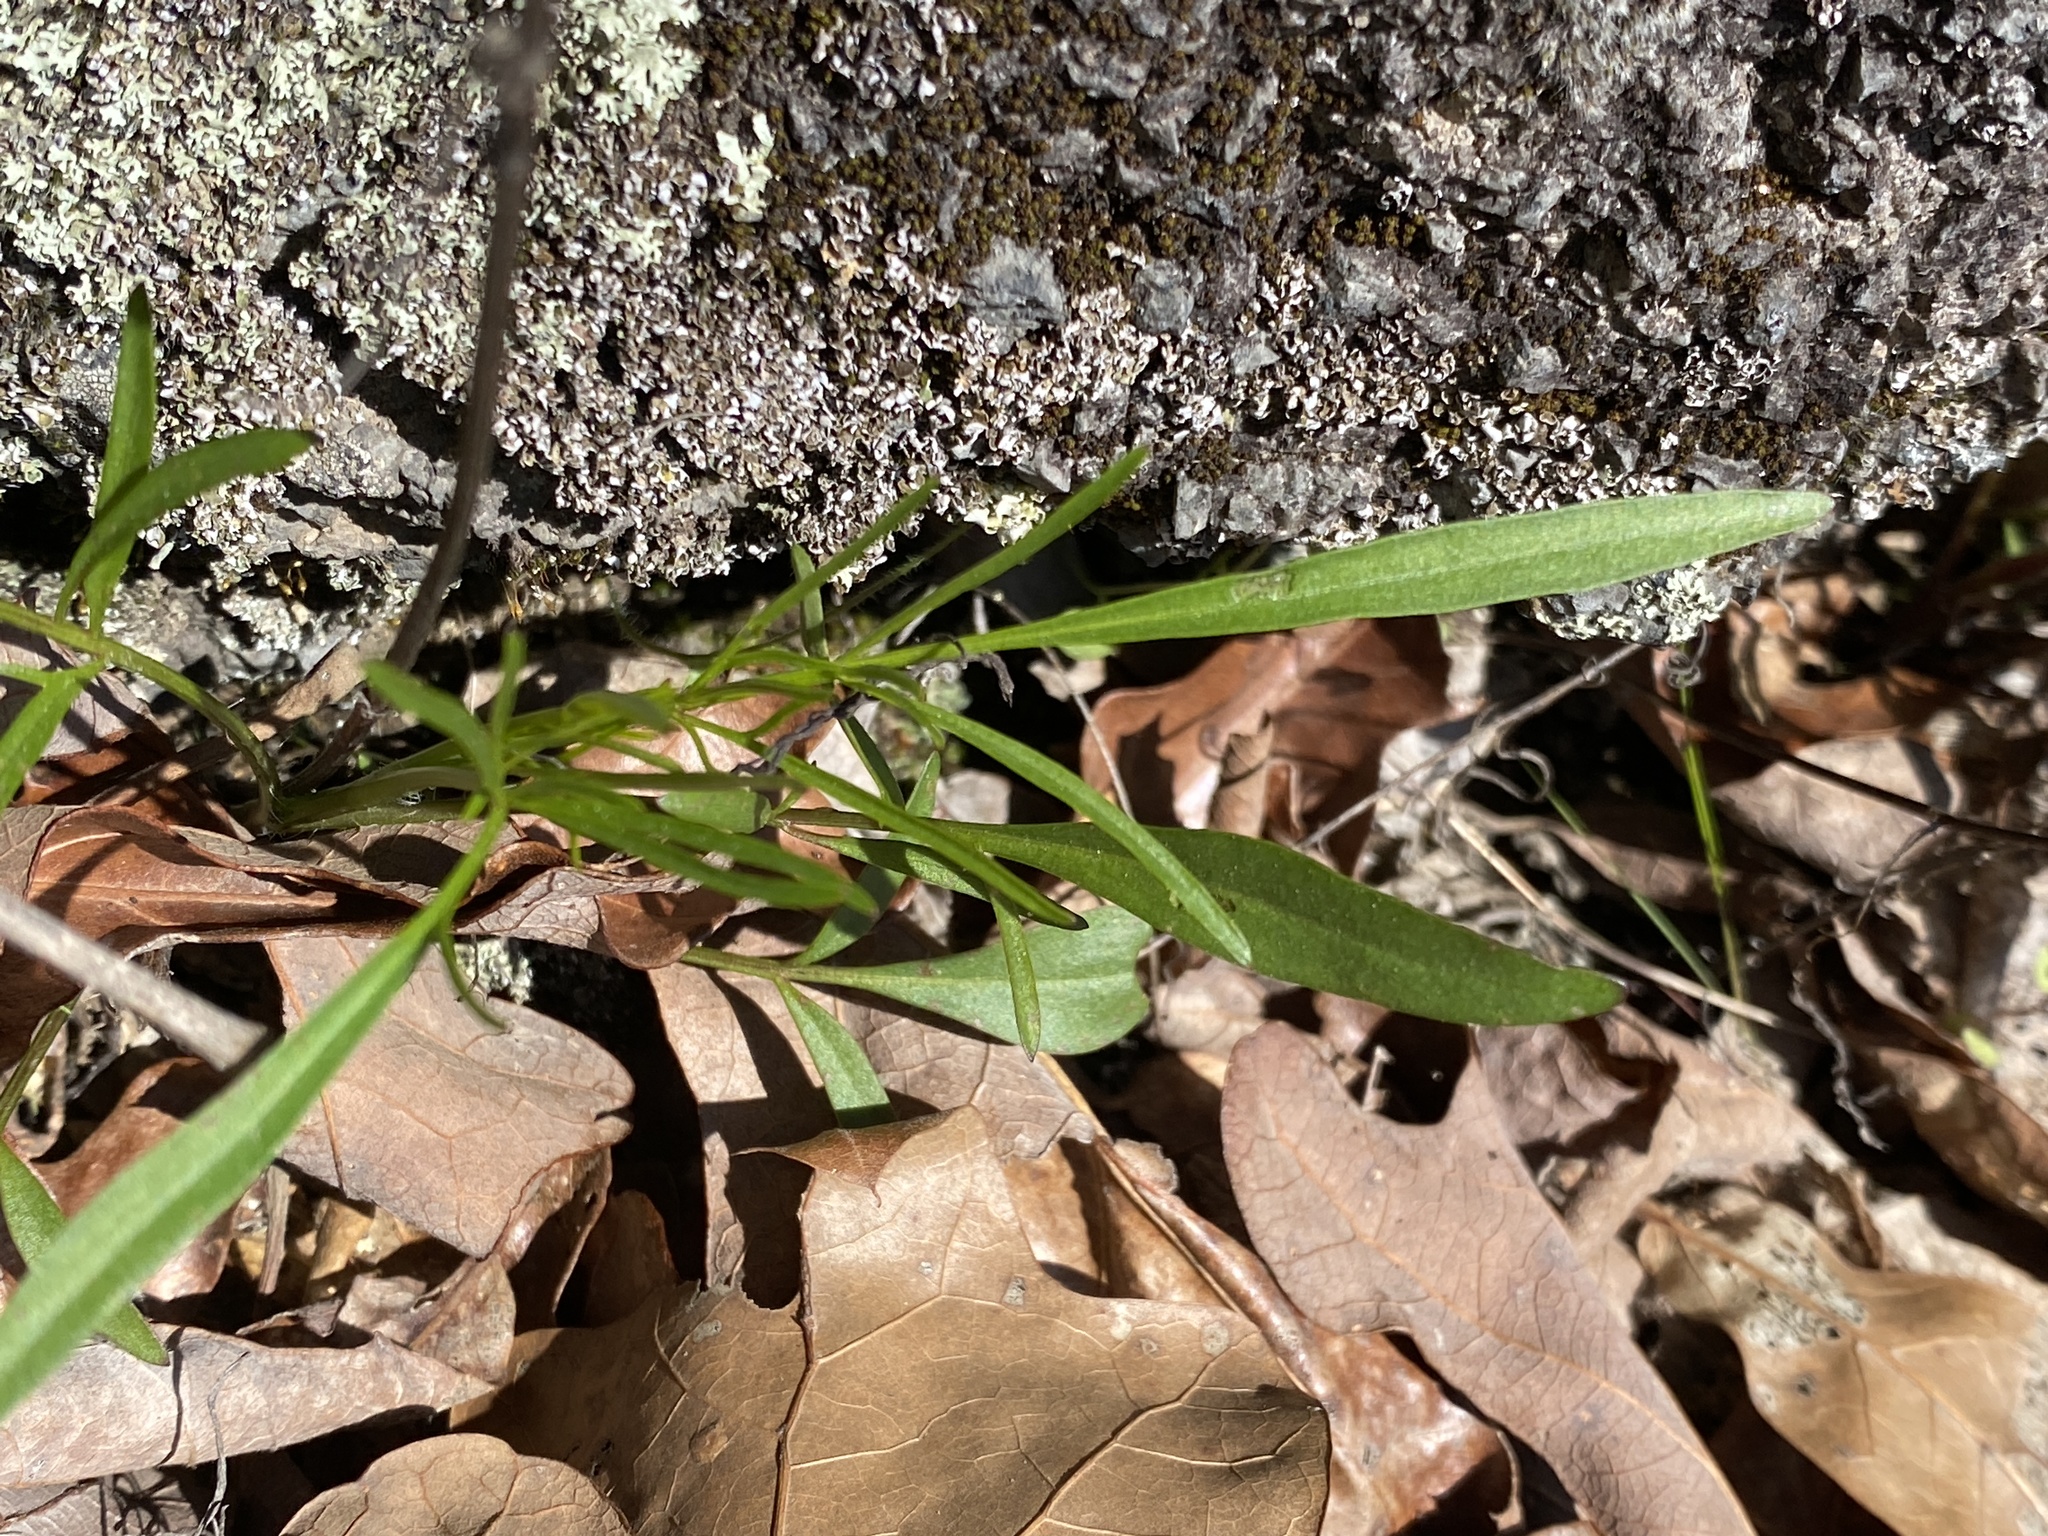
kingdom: Plantae
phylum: Tracheophyta
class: Magnoliopsida
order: Asterales
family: Asteraceae
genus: Coreopsis
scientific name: Coreopsis grandiflora
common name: Large-flowered tickseed
